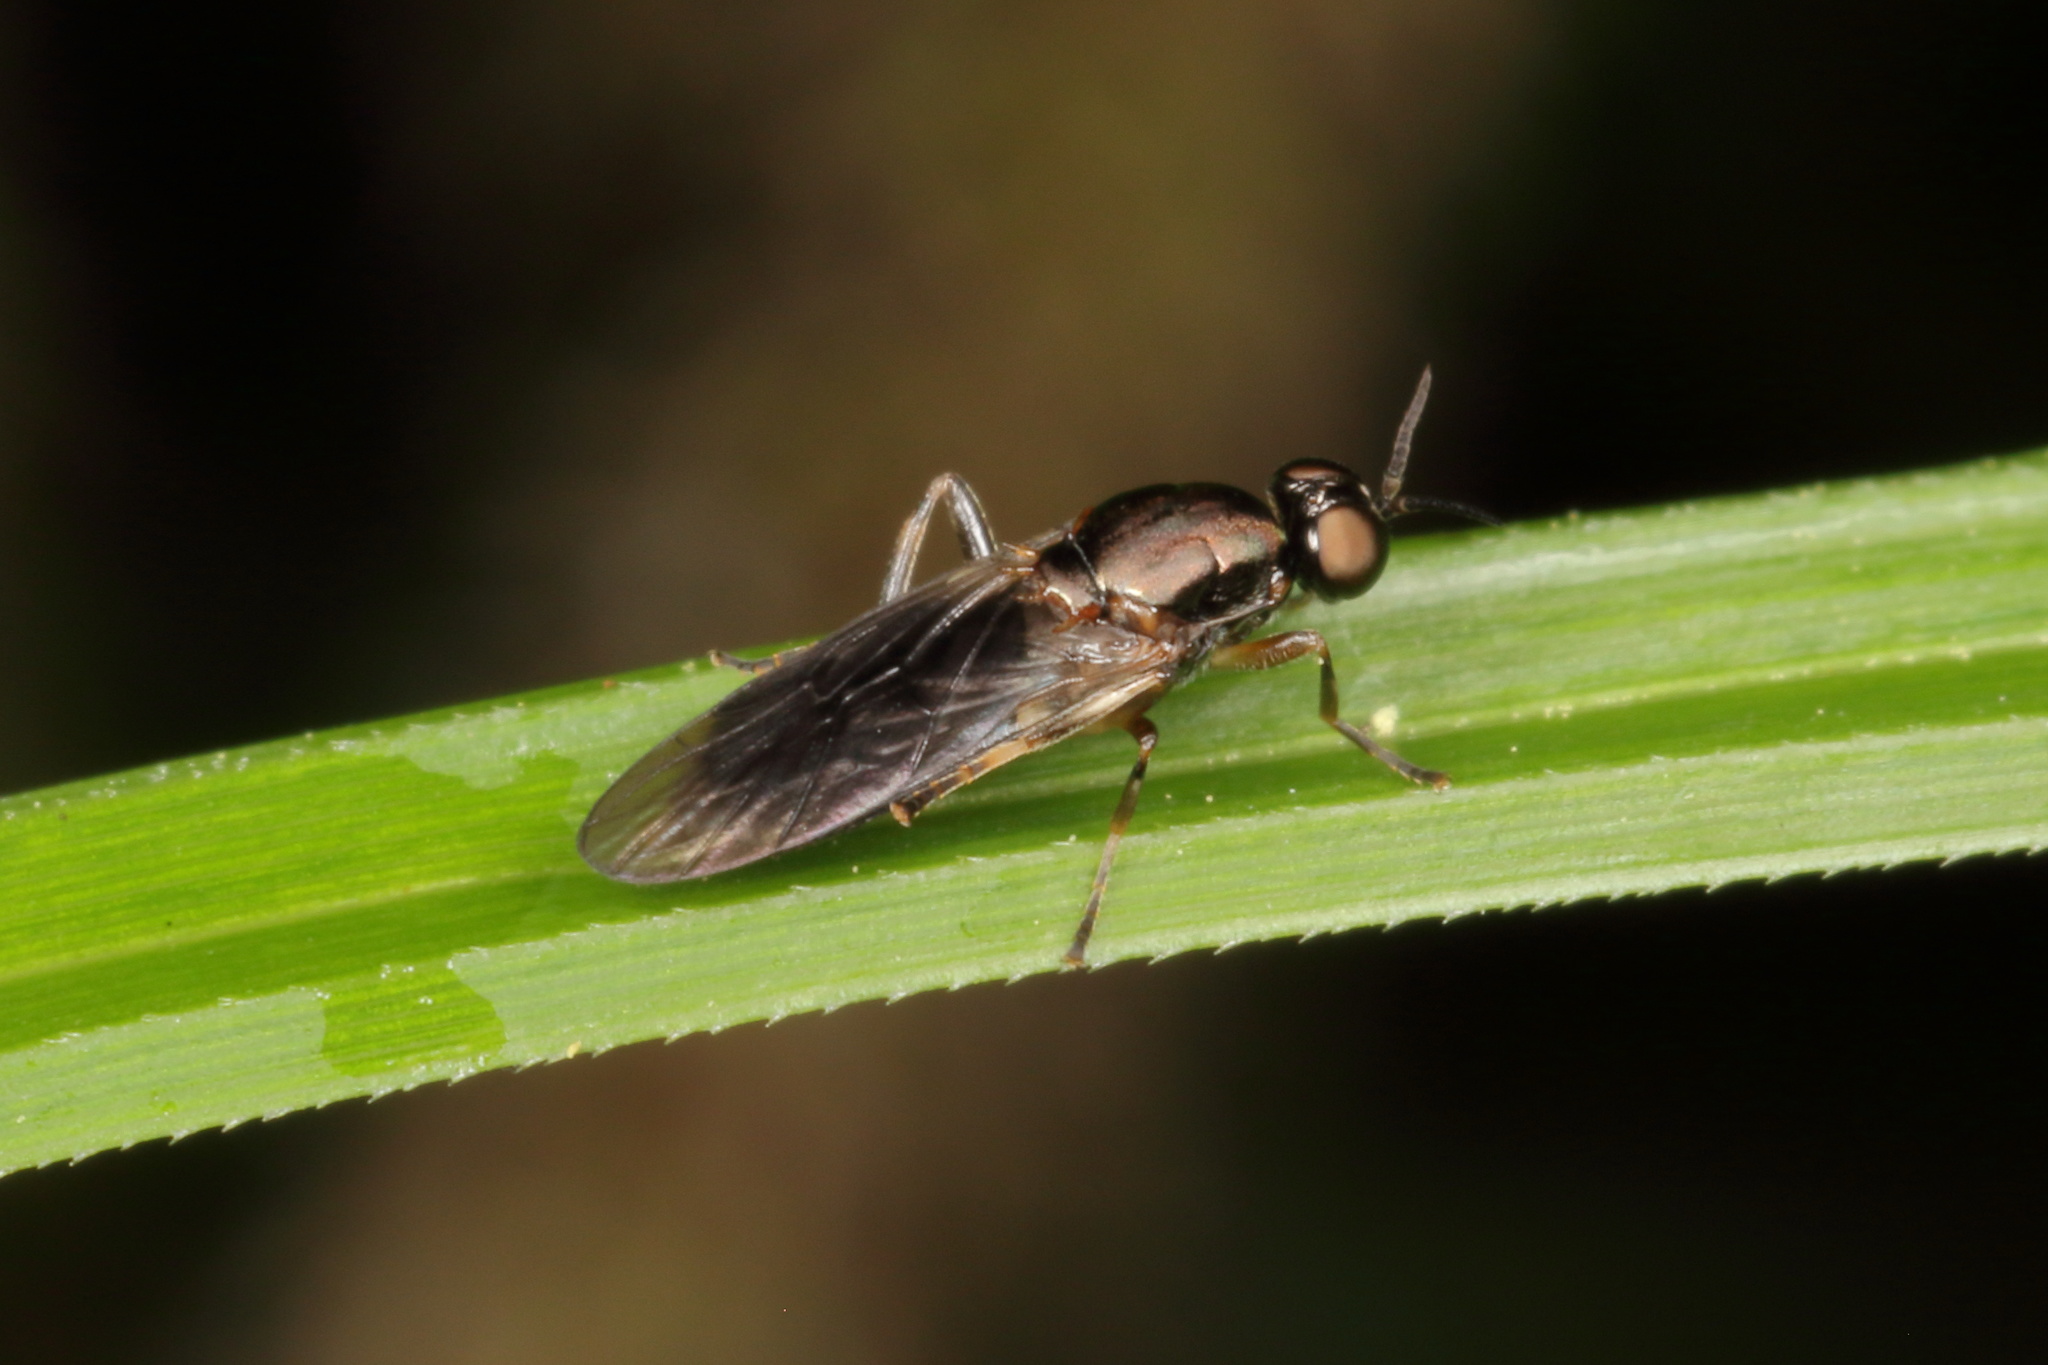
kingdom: Animalia
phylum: Arthropoda
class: Insecta
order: Diptera
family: Stratiomyidae
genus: Zealandoberis
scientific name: Zealandoberis violacea
